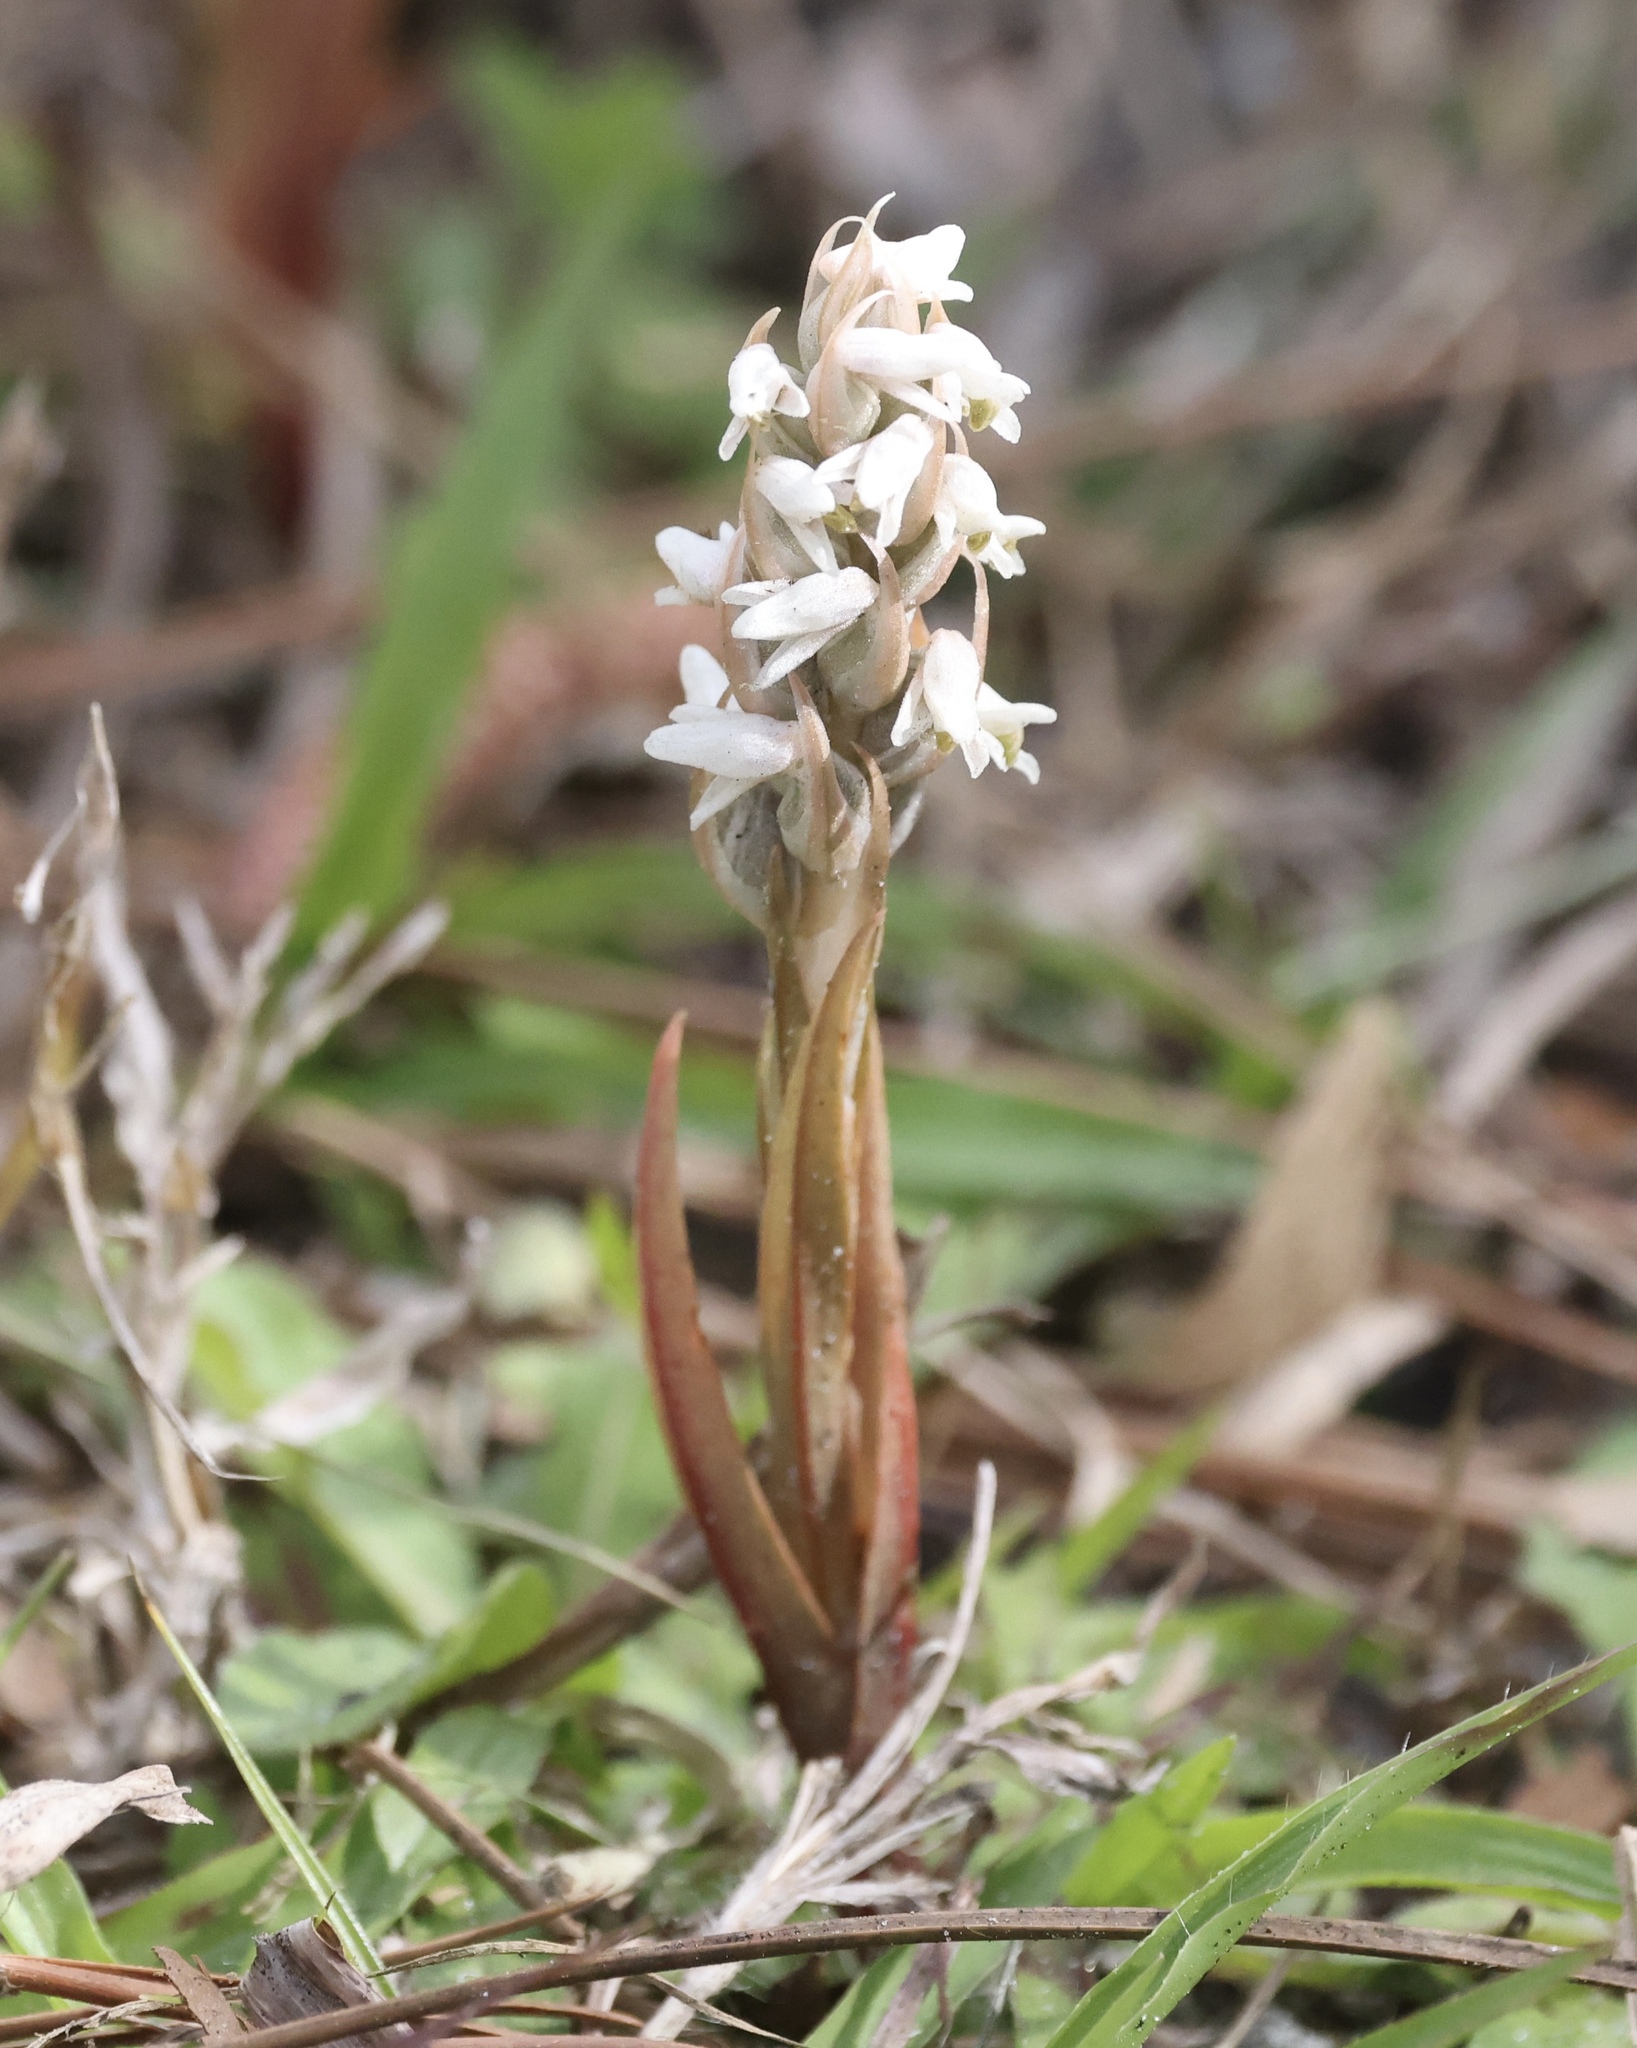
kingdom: Plantae
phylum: Tracheophyta
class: Liliopsida
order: Asparagales
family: Orchidaceae
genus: Zeuxine
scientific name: Zeuxine strateumatica
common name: Soldier's orchid
